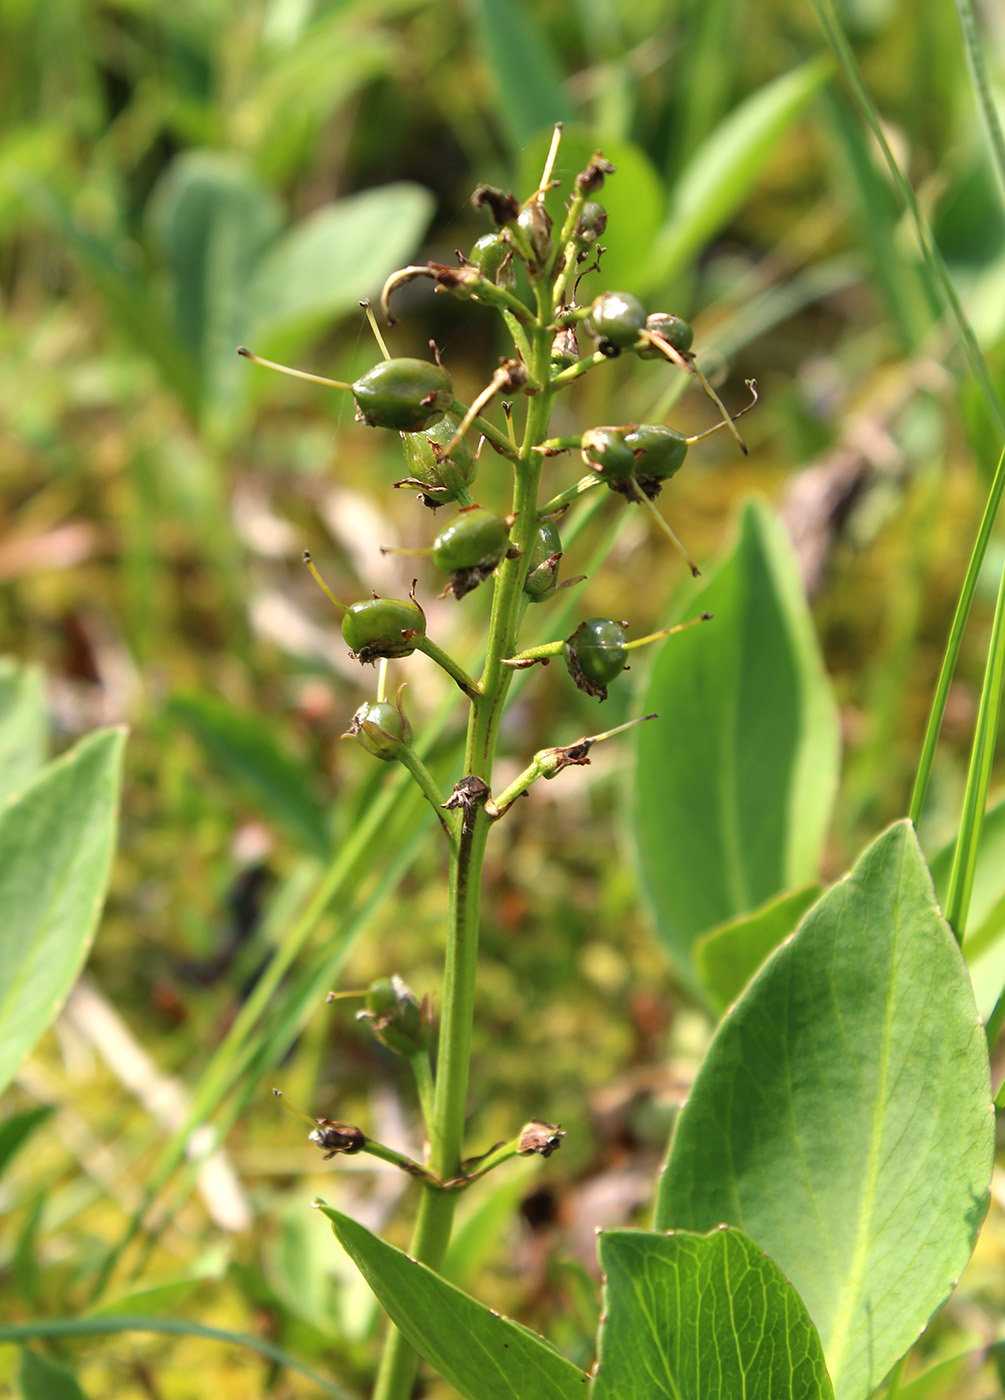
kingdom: Plantae
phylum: Tracheophyta
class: Magnoliopsida
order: Asterales
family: Menyanthaceae
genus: Menyanthes
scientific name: Menyanthes trifoliata
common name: Bogbean
